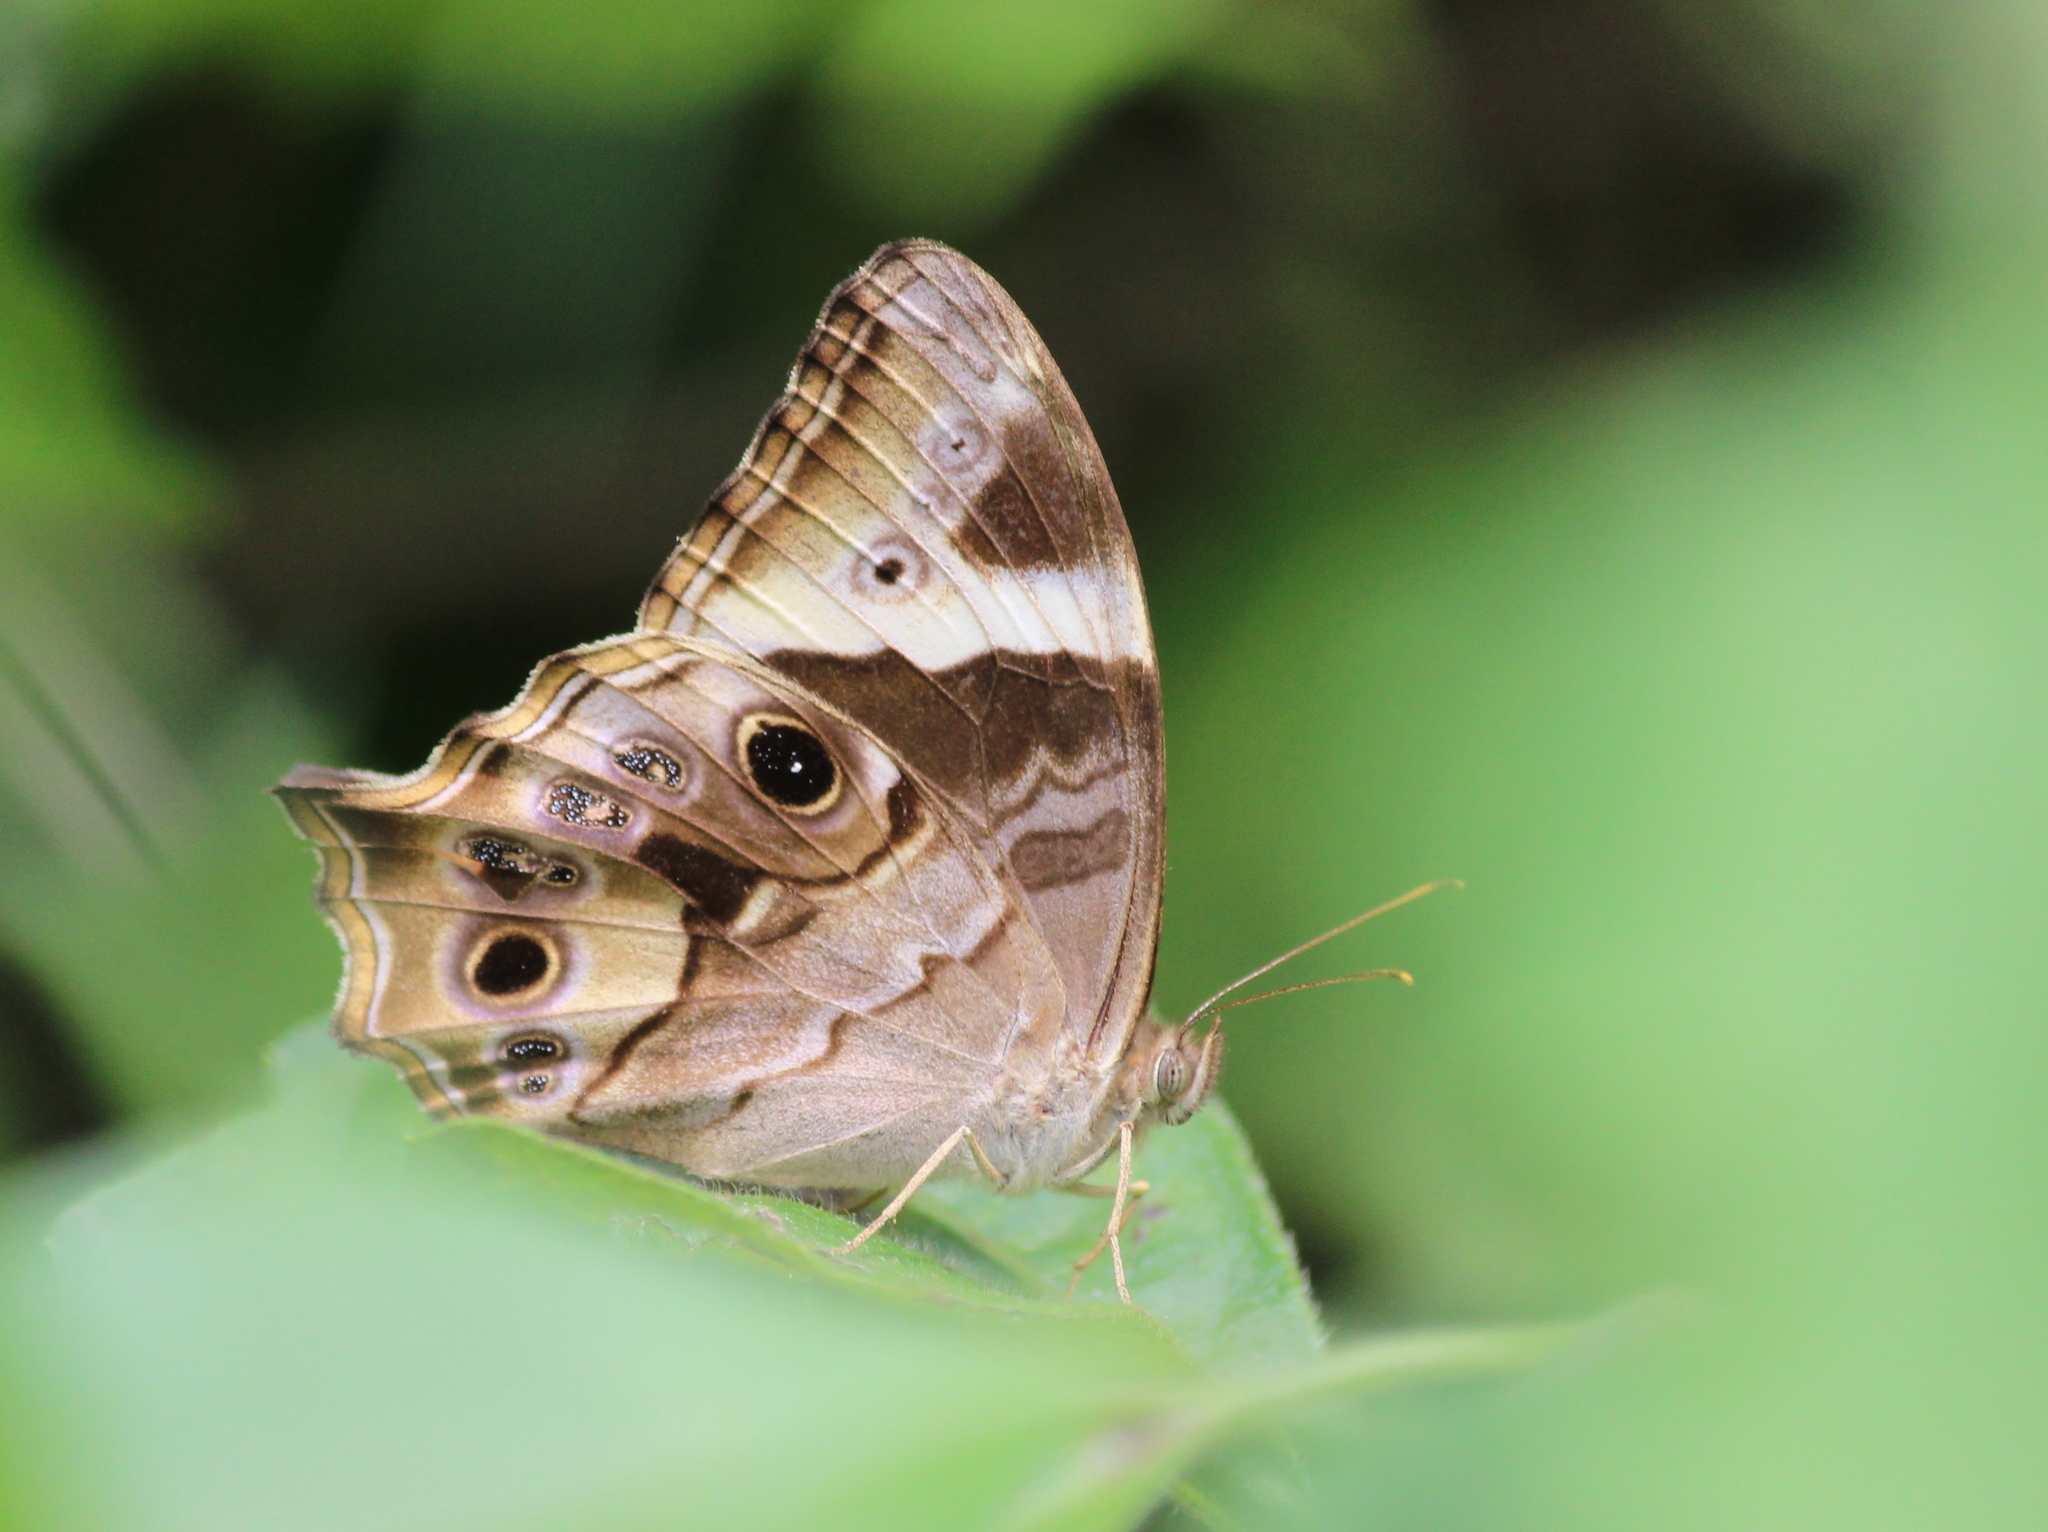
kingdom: Animalia
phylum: Arthropoda
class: Insecta
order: Lepidoptera
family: Nymphalidae
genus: Lethe
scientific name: Lethe drypetis
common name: Tamil treebrown
